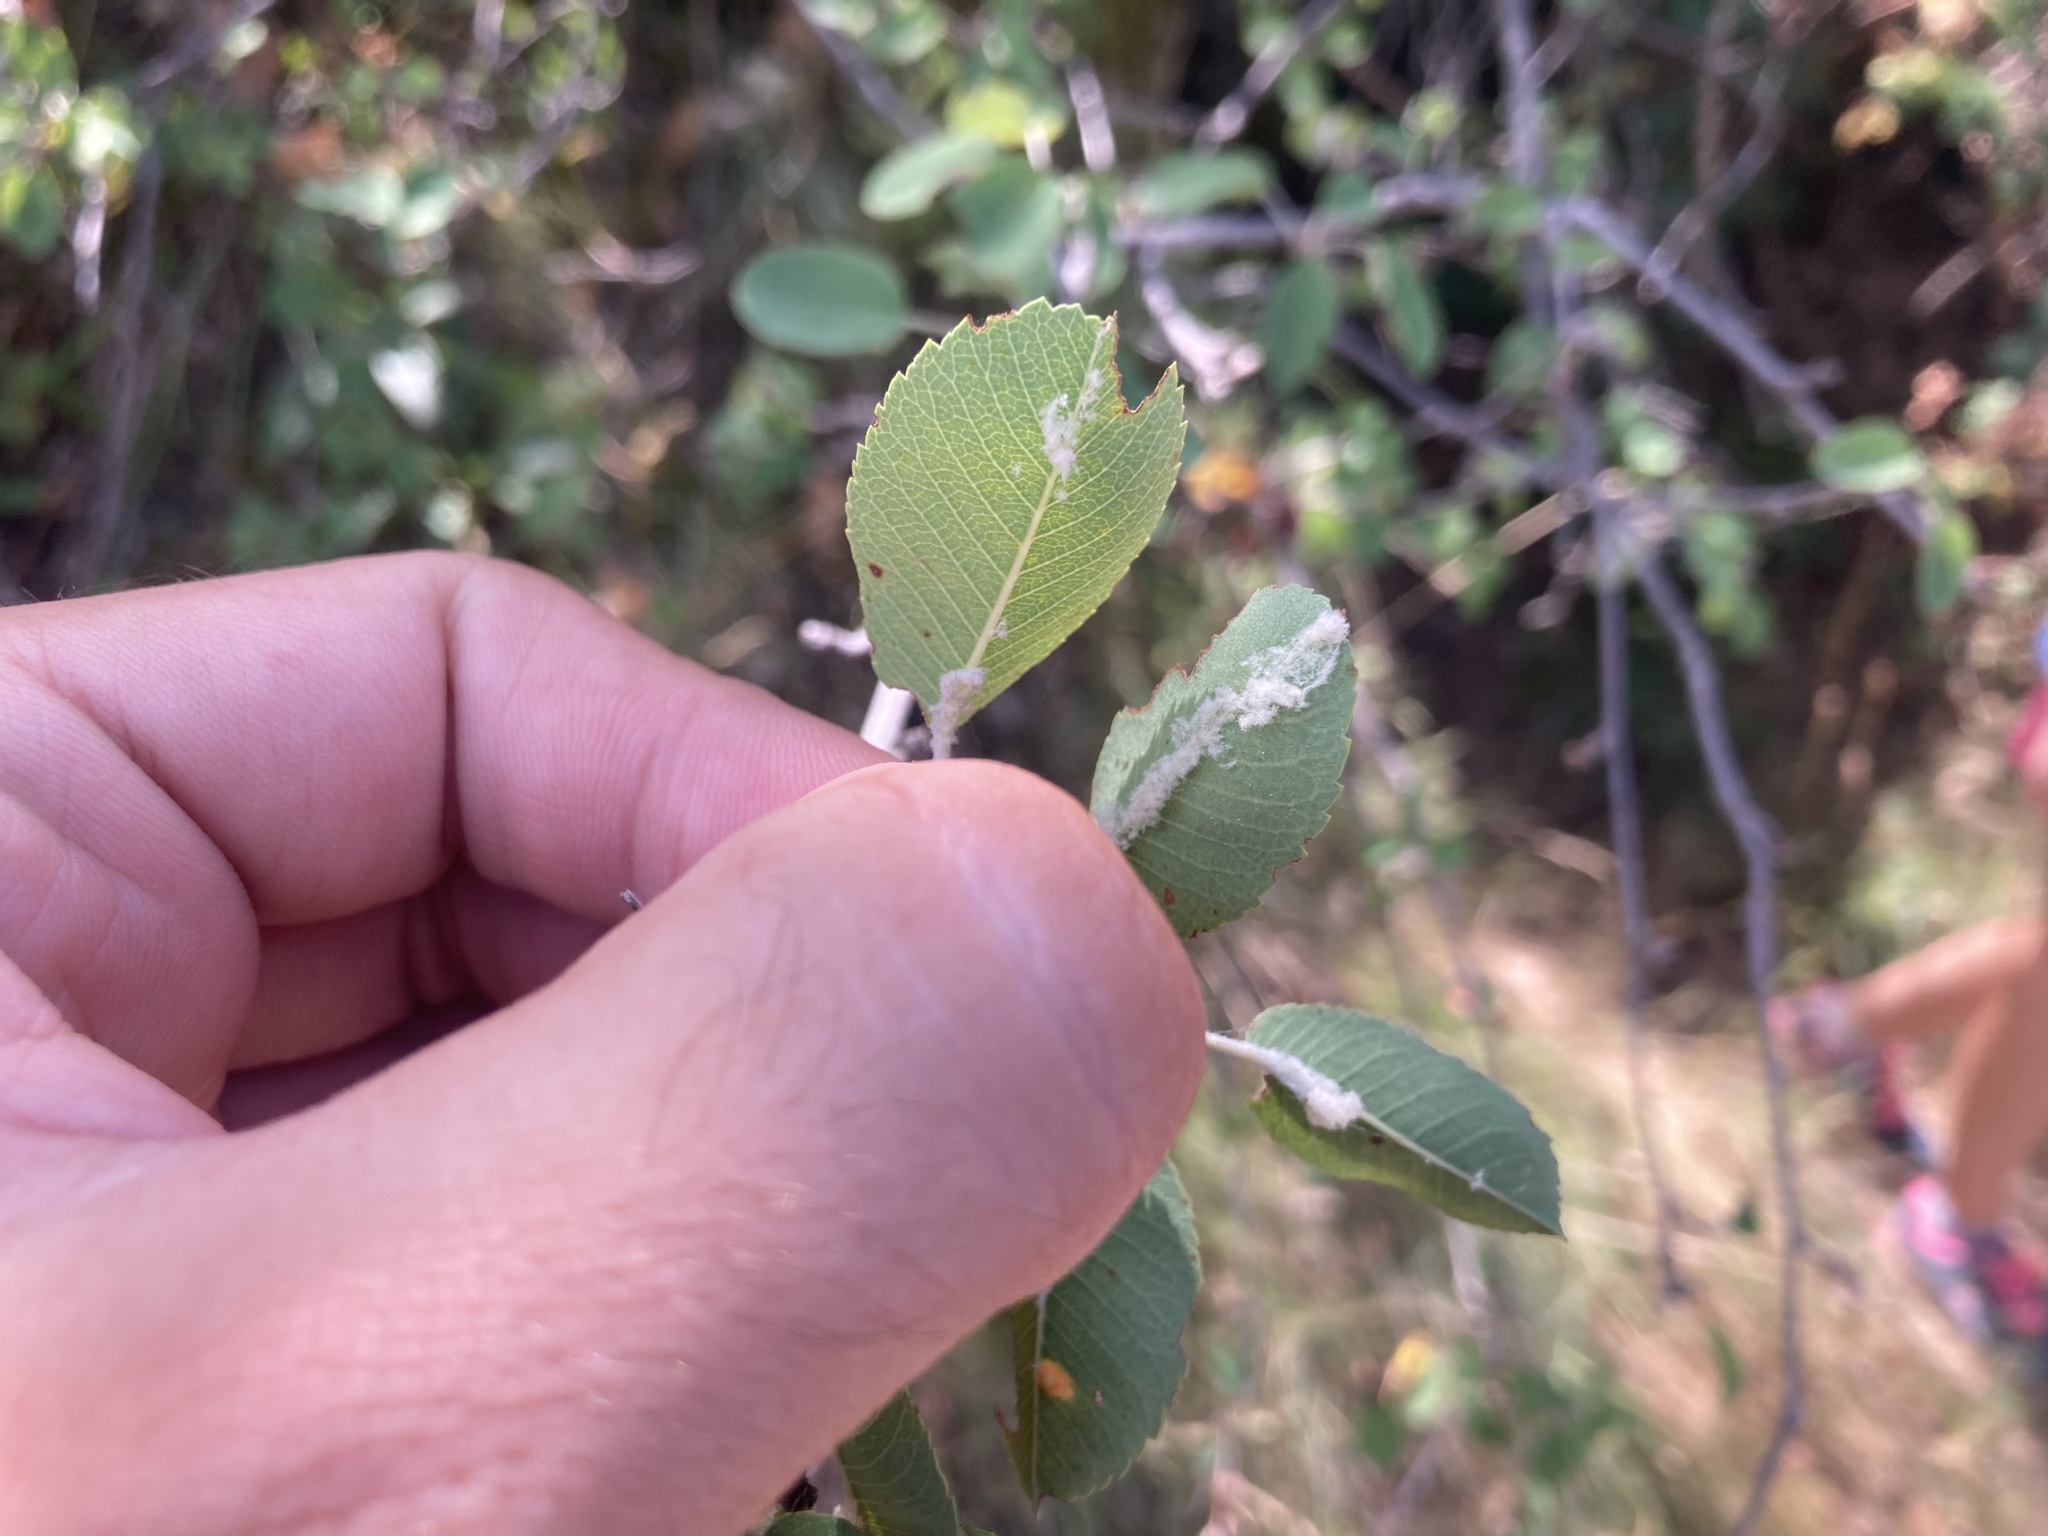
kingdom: Plantae
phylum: Tracheophyta
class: Magnoliopsida
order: Rosales
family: Rosaceae
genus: Amelanchier
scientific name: Amelanchier ovalis
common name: Serviceberry
